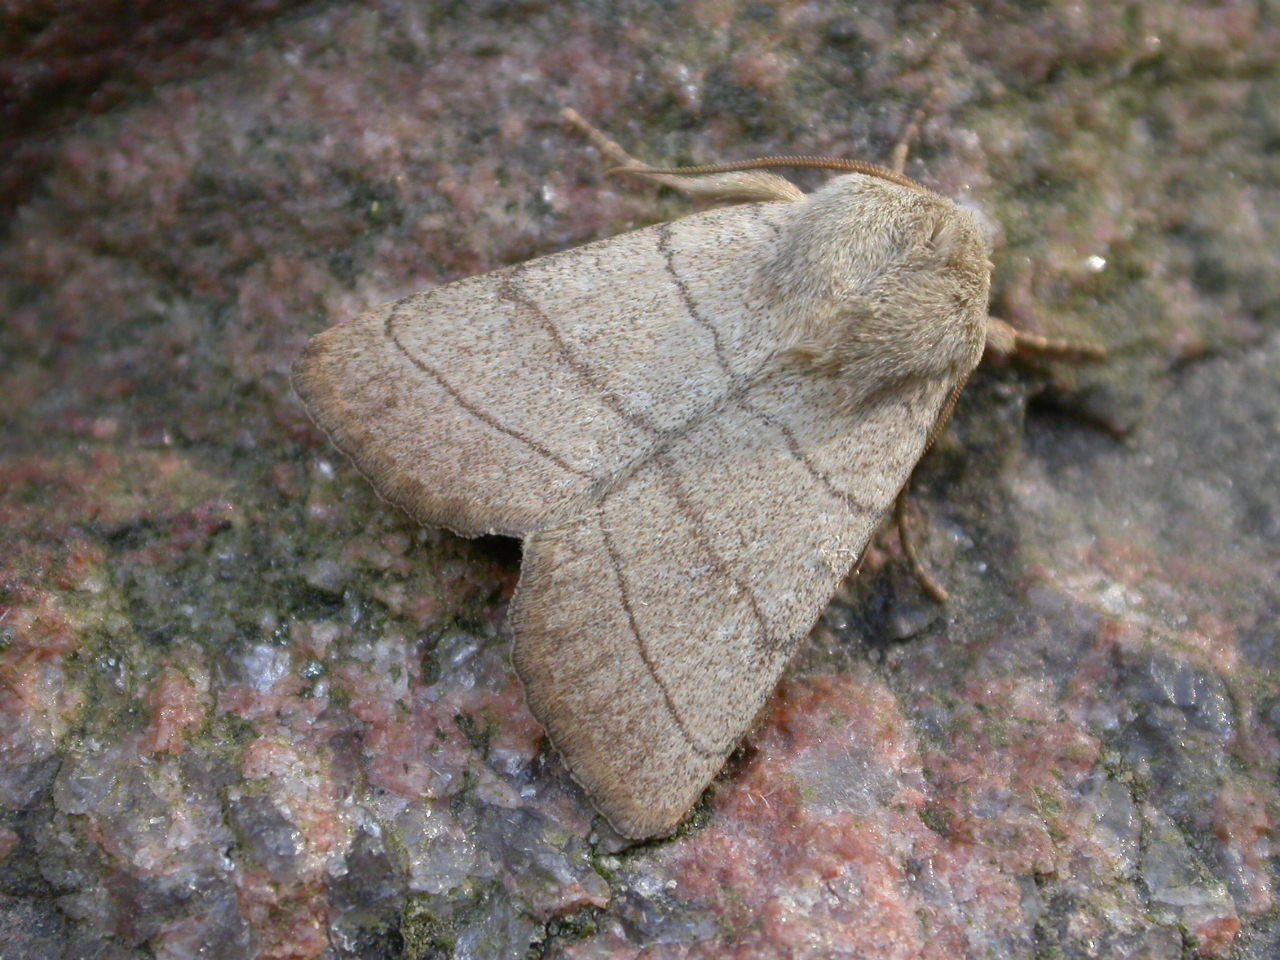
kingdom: Animalia
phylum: Arthropoda
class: Insecta
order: Lepidoptera
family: Noctuidae
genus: Charanyca
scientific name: Charanyca trigrammica
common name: Treble lines
